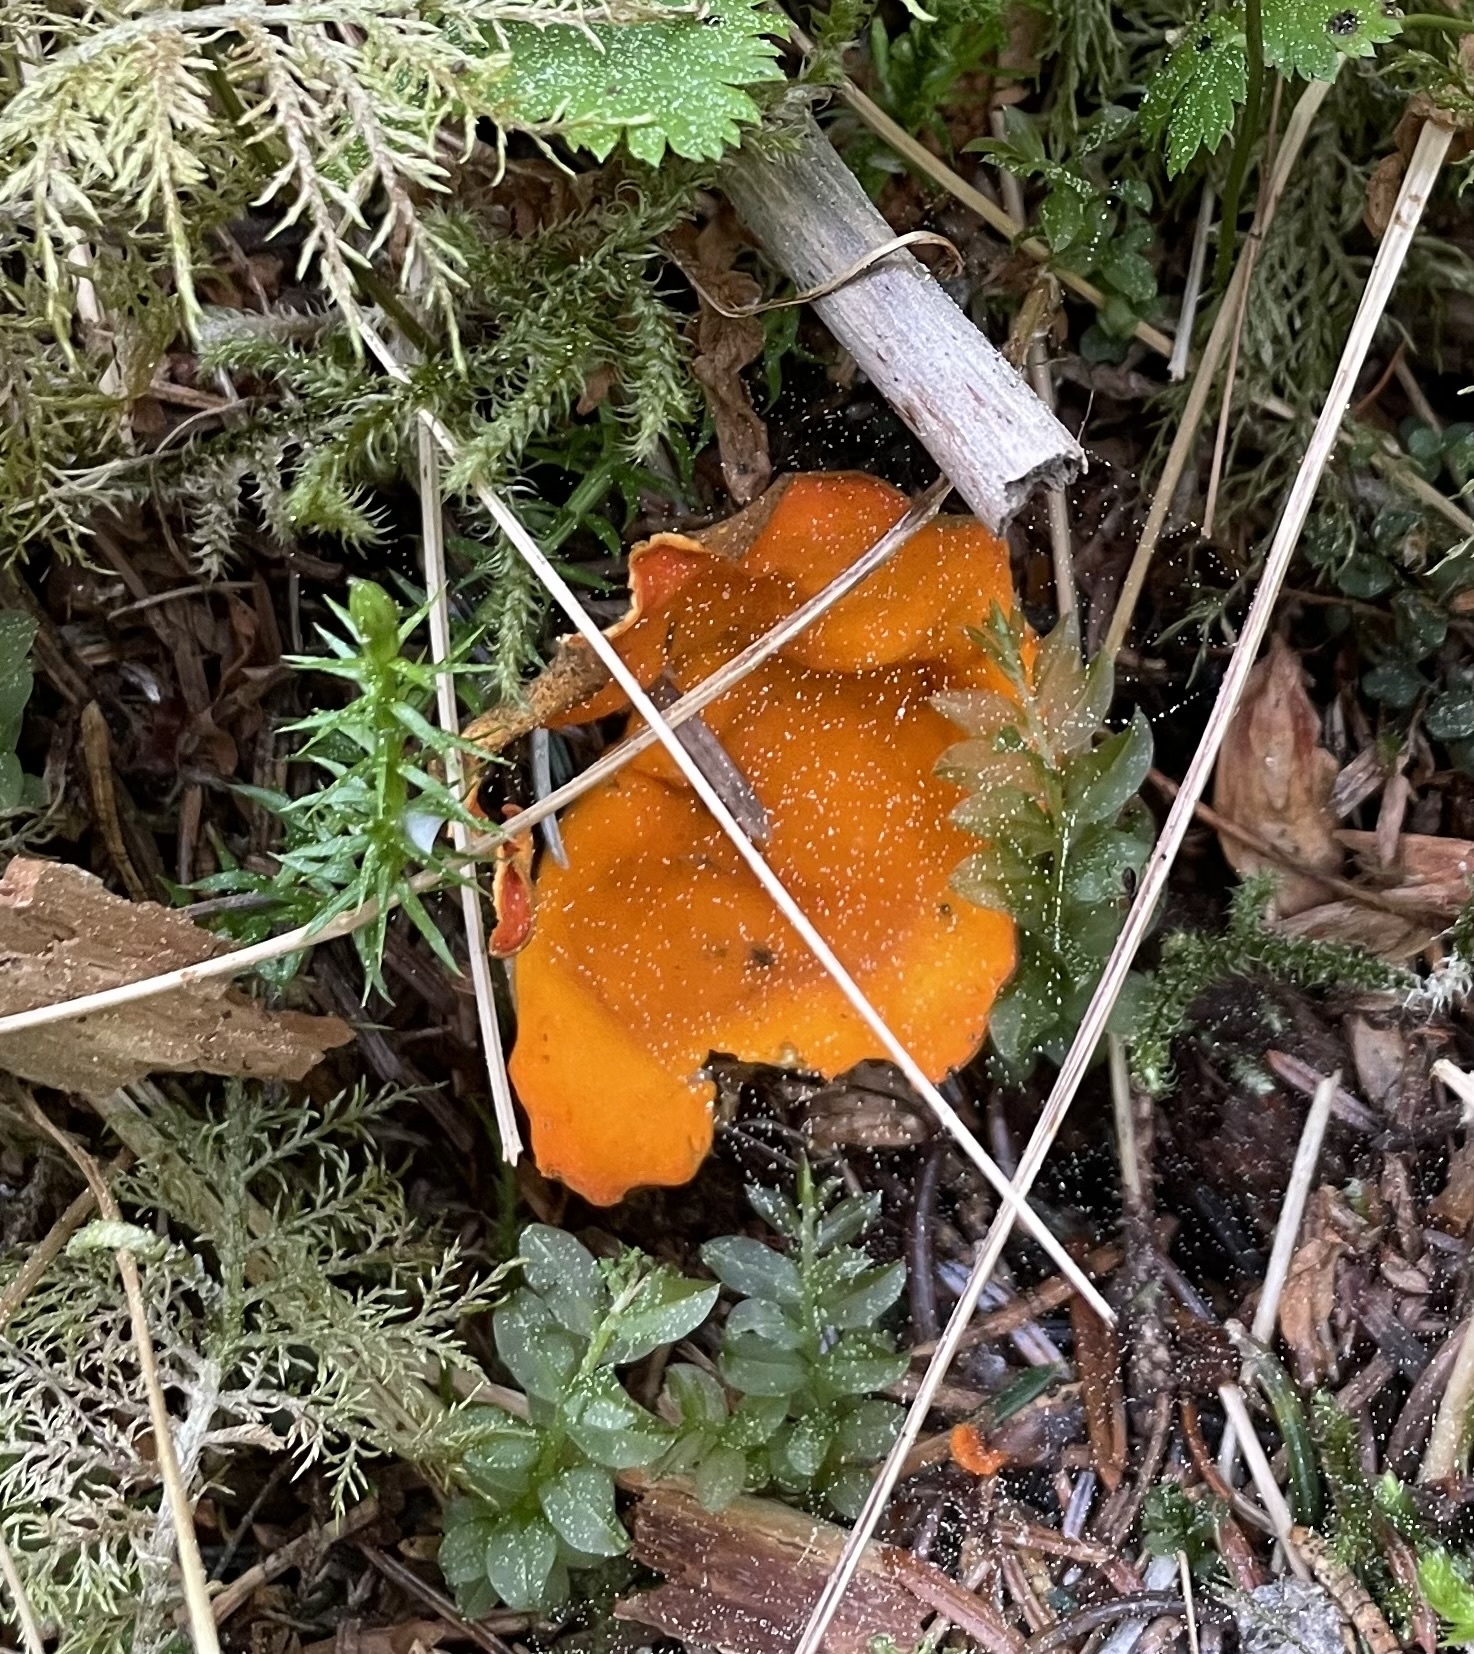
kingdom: Fungi
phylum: Ascomycota
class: Pezizomycetes
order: Pezizales
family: Caloscyphaceae
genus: Caloscypha
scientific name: Caloscypha fulgens
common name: Golden cup
